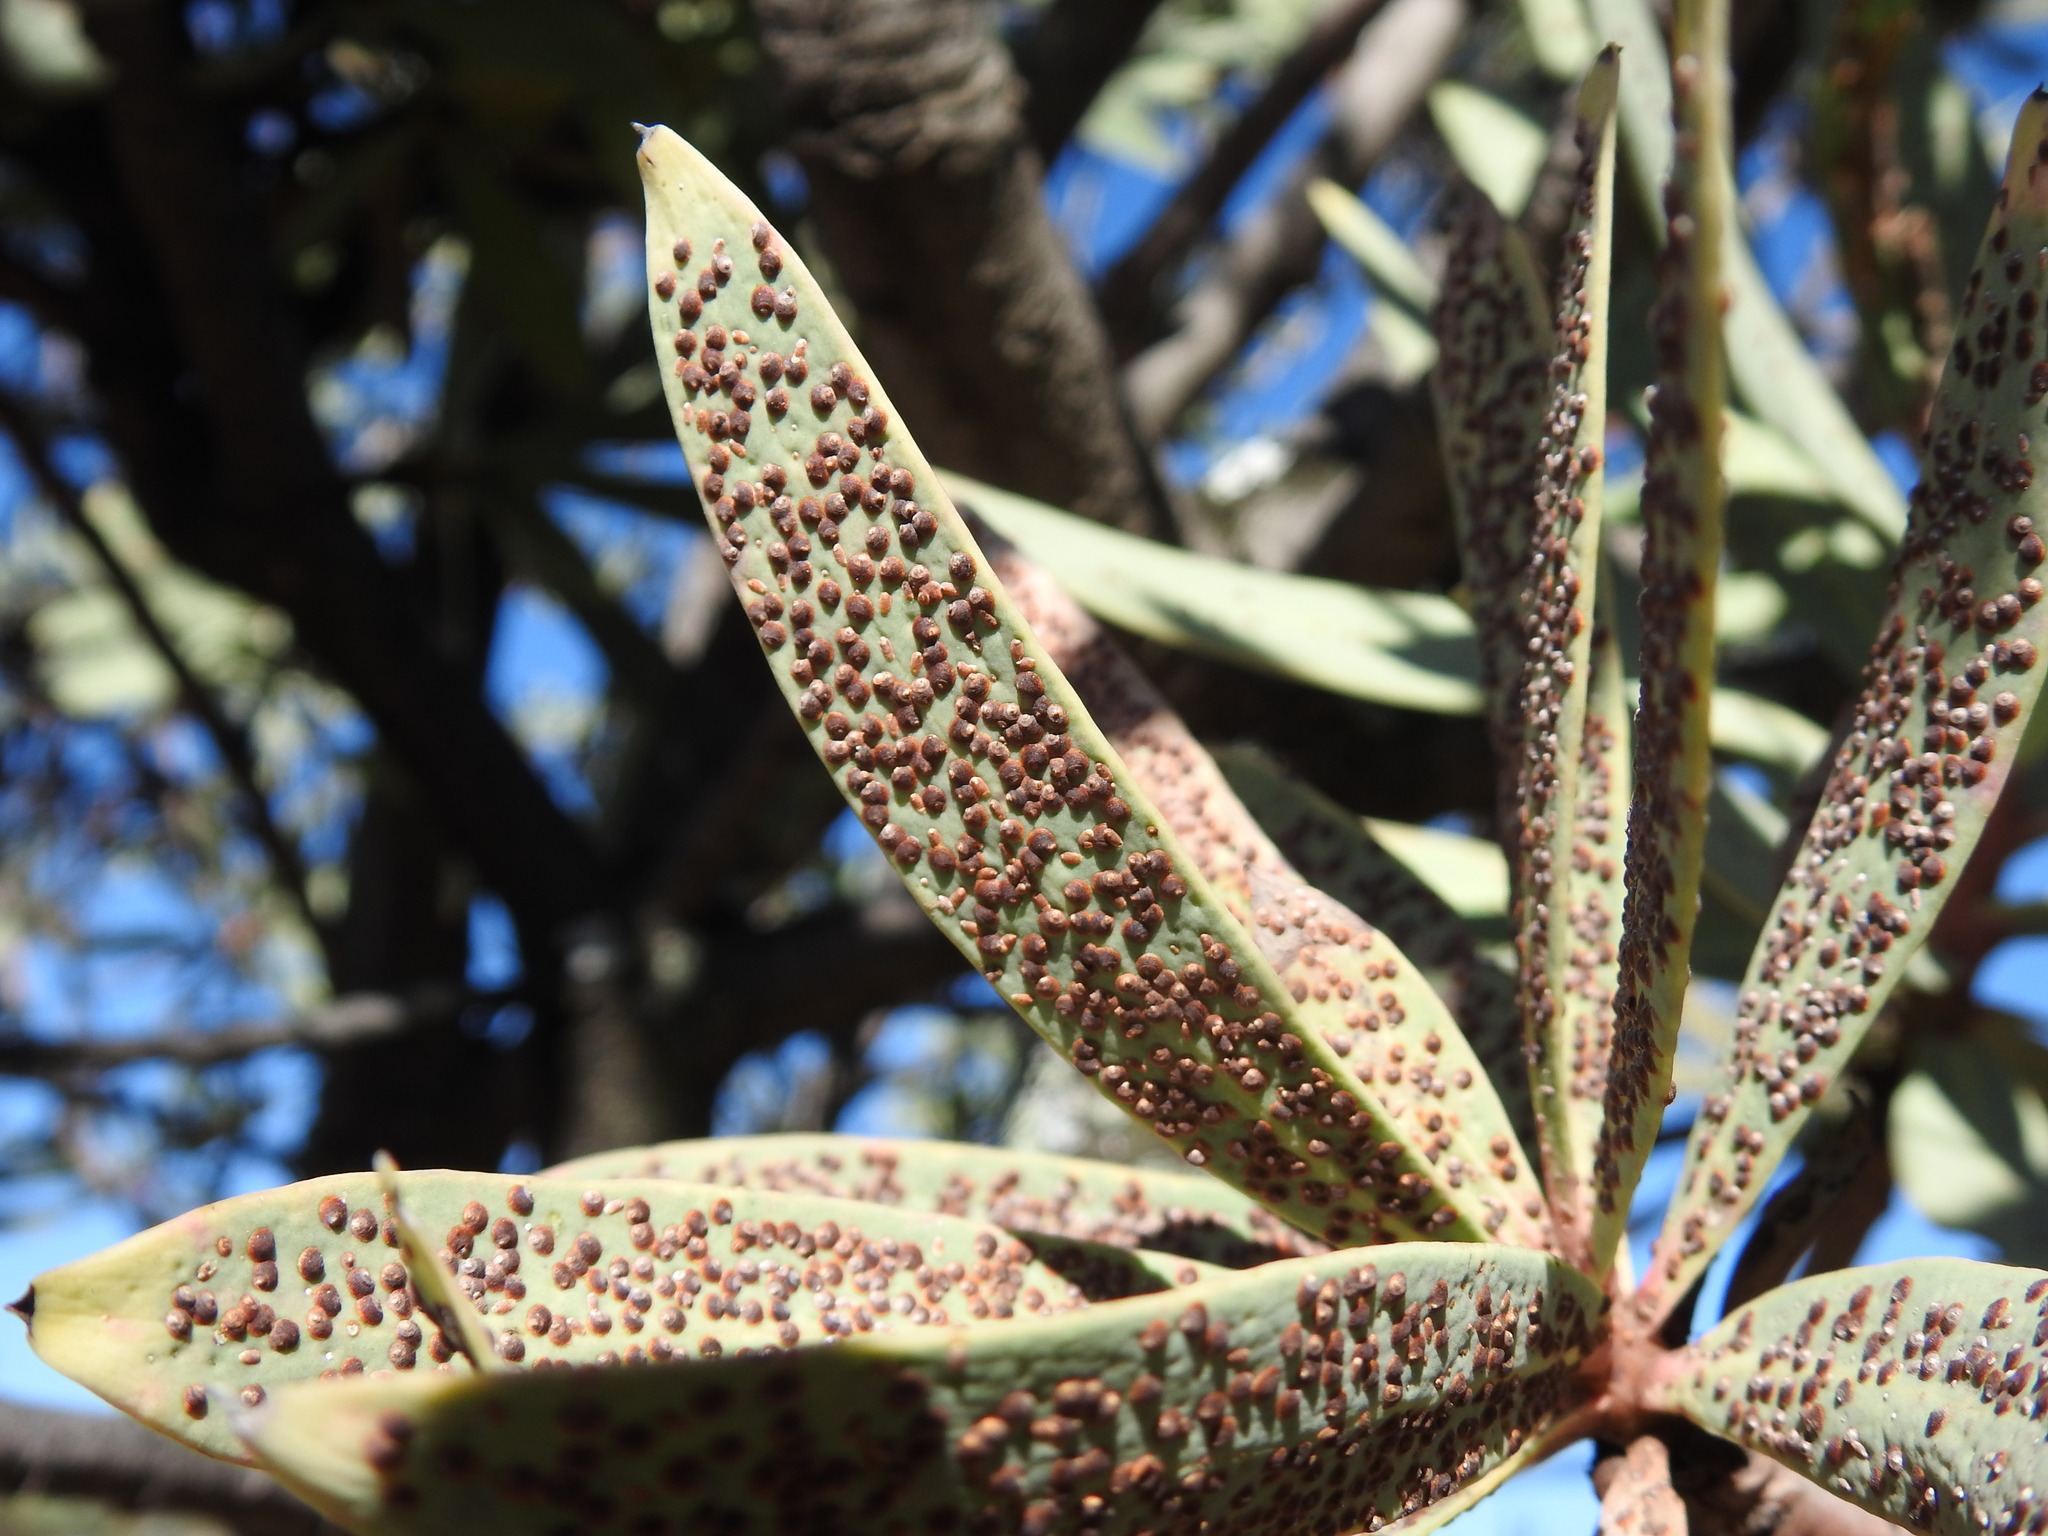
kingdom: Animalia
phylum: Arthropoda
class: Insecta
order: Hemiptera
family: Diaspididae
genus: Separaspis
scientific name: Separaspis proteae
